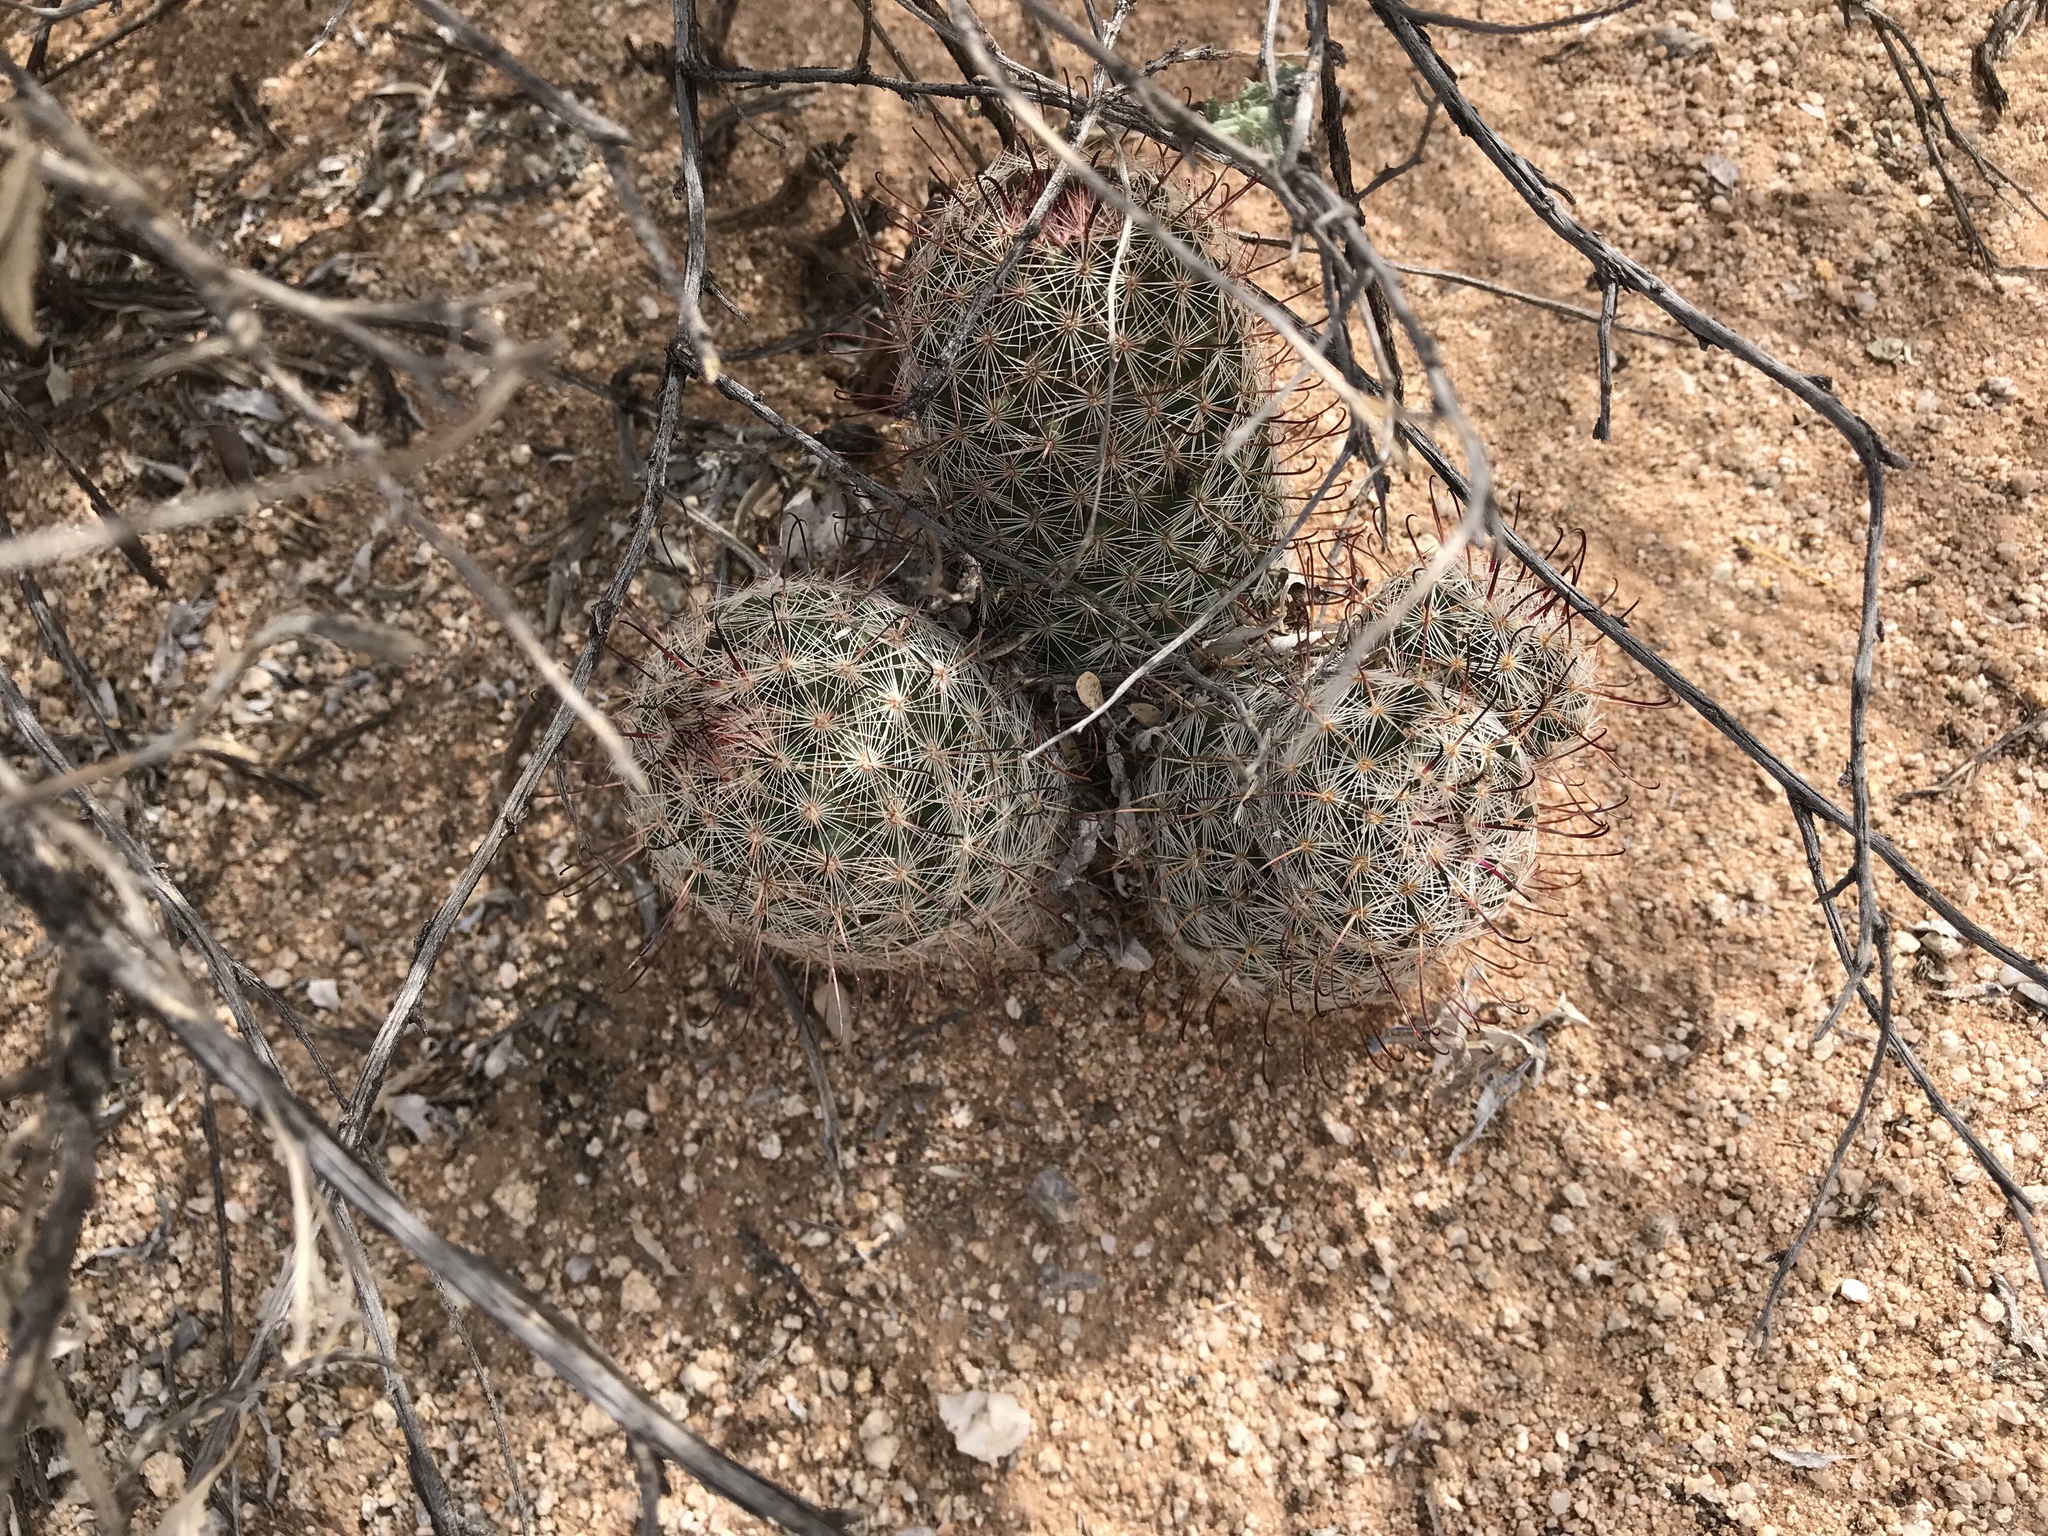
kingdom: Plantae
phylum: Tracheophyta
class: Magnoliopsida
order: Caryophyllales
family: Cactaceae
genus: Cochemiea
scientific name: Cochemiea grahamii
